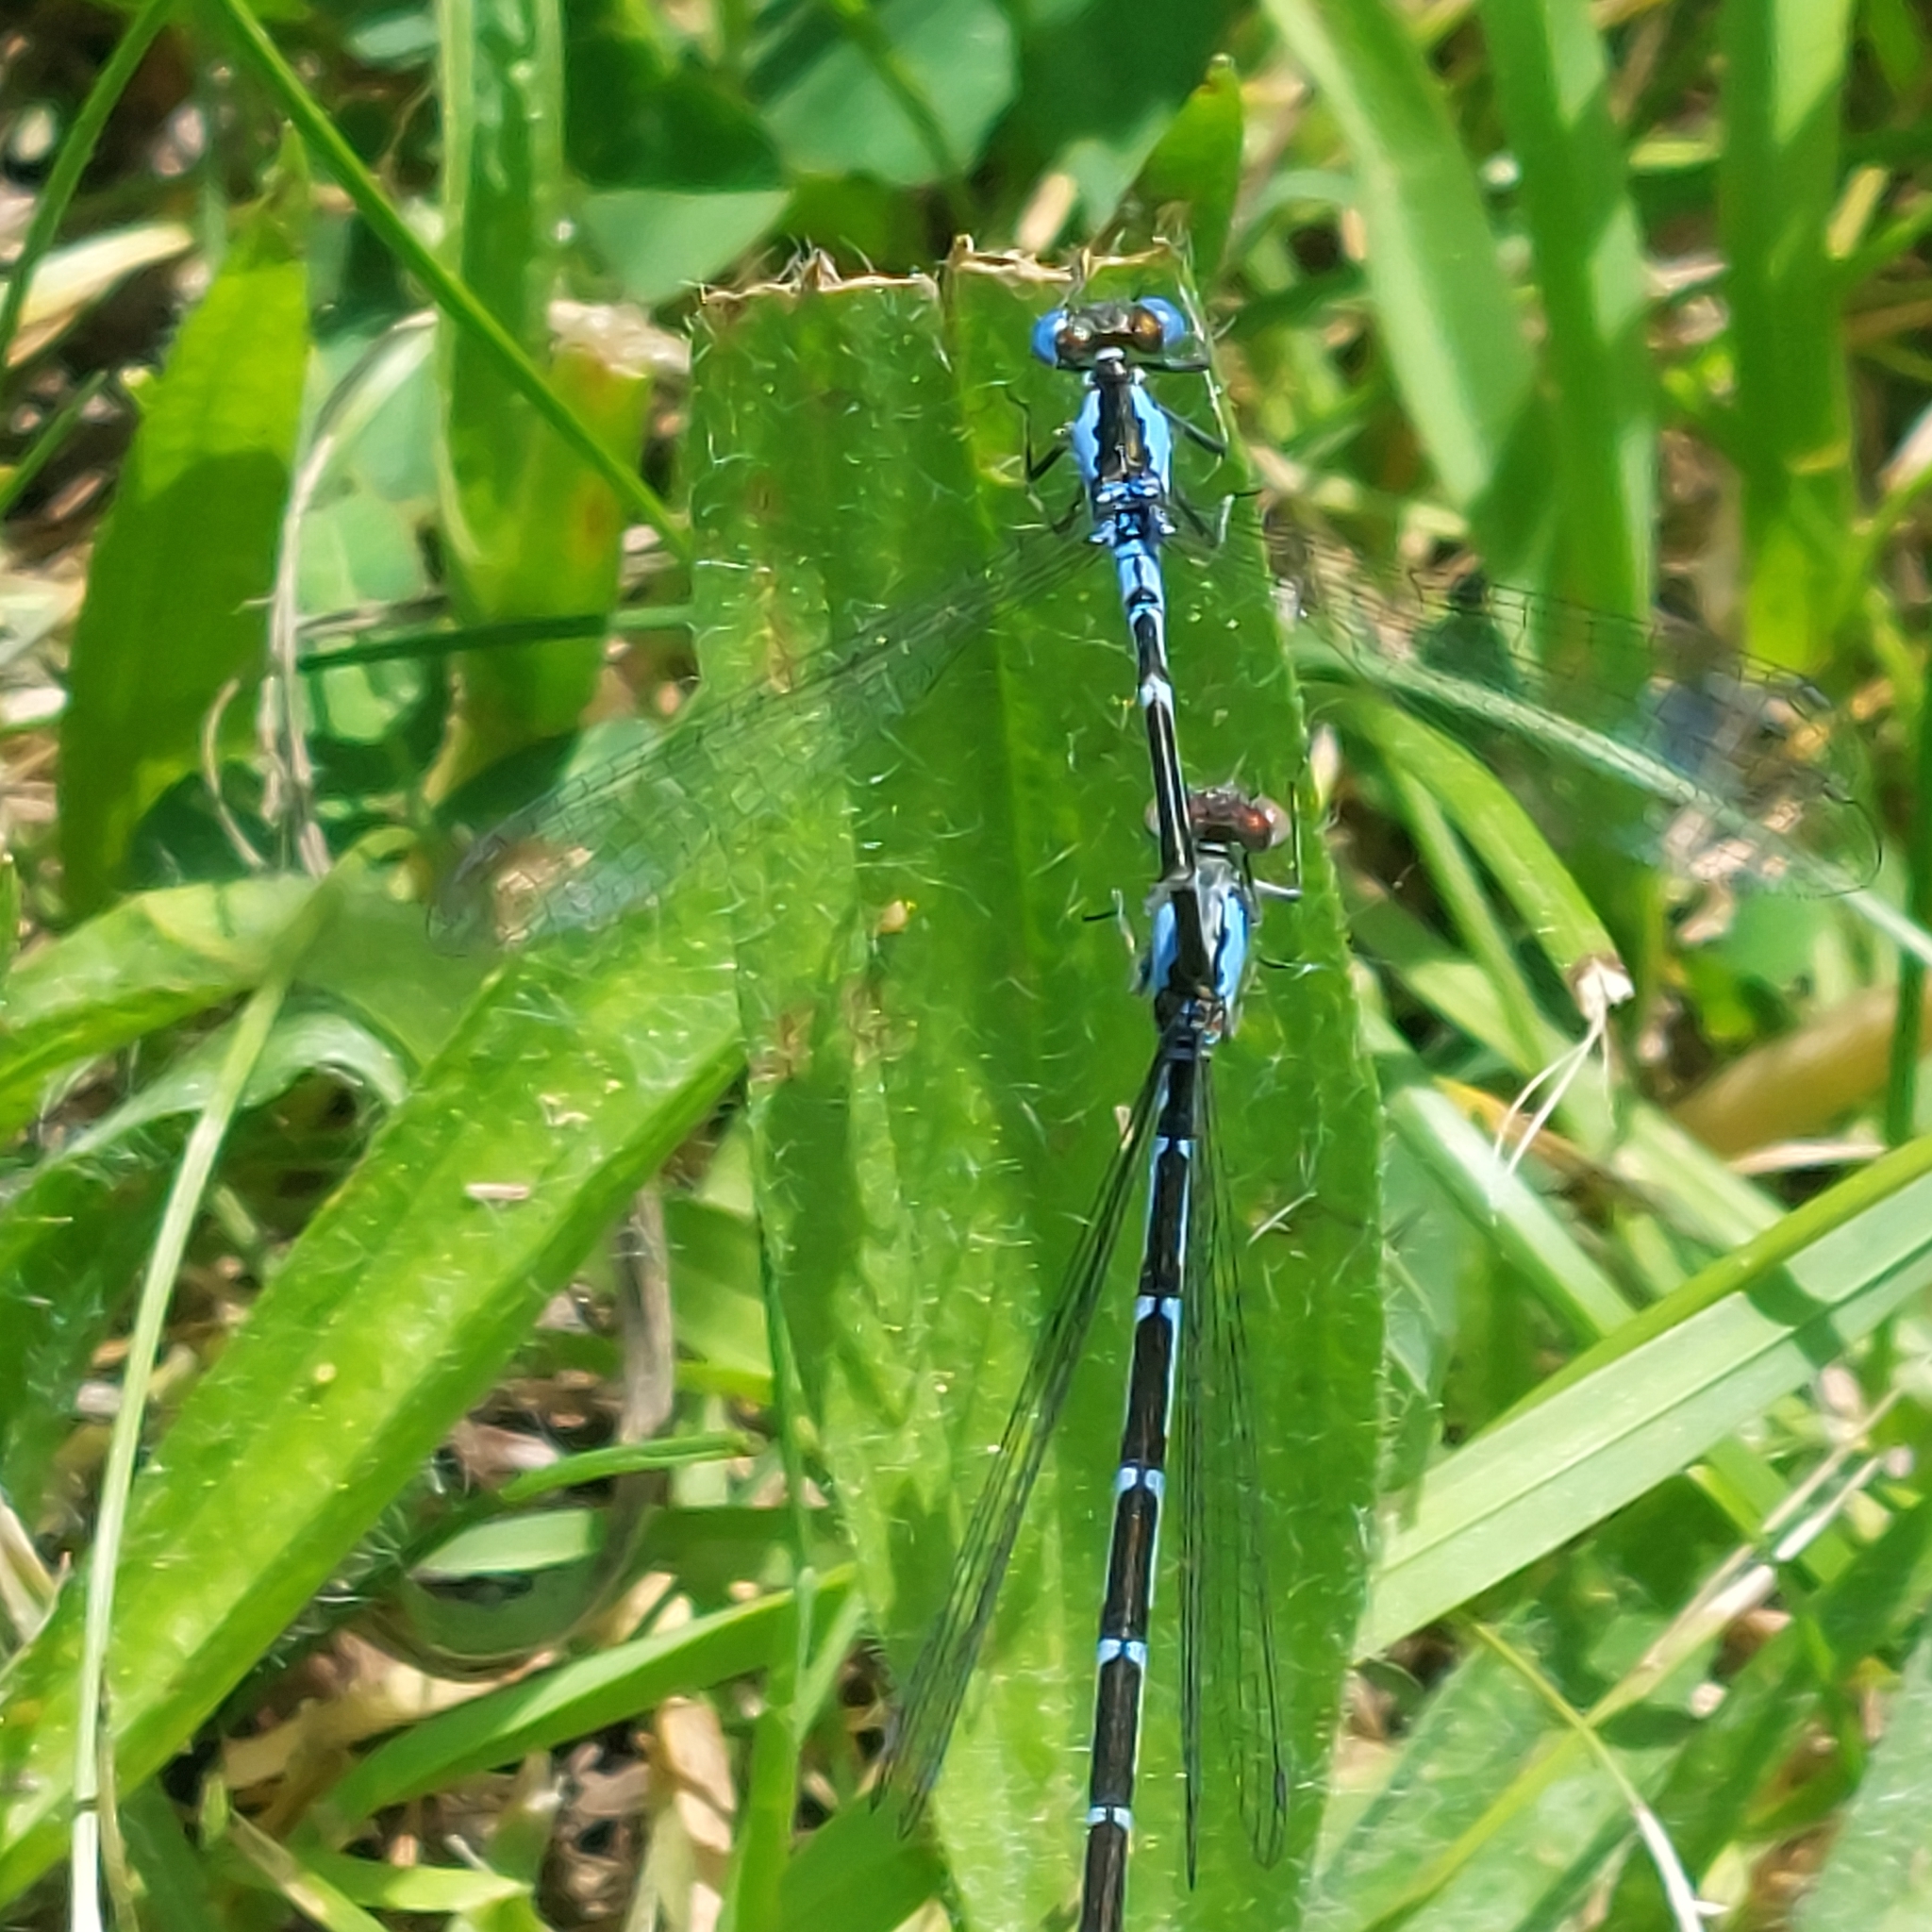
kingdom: Animalia
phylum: Arthropoda
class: Insecta
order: Odonata
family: Coenagrionidae
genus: Chromagrion
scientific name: Chromagrion conditum
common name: Aurora damsel
